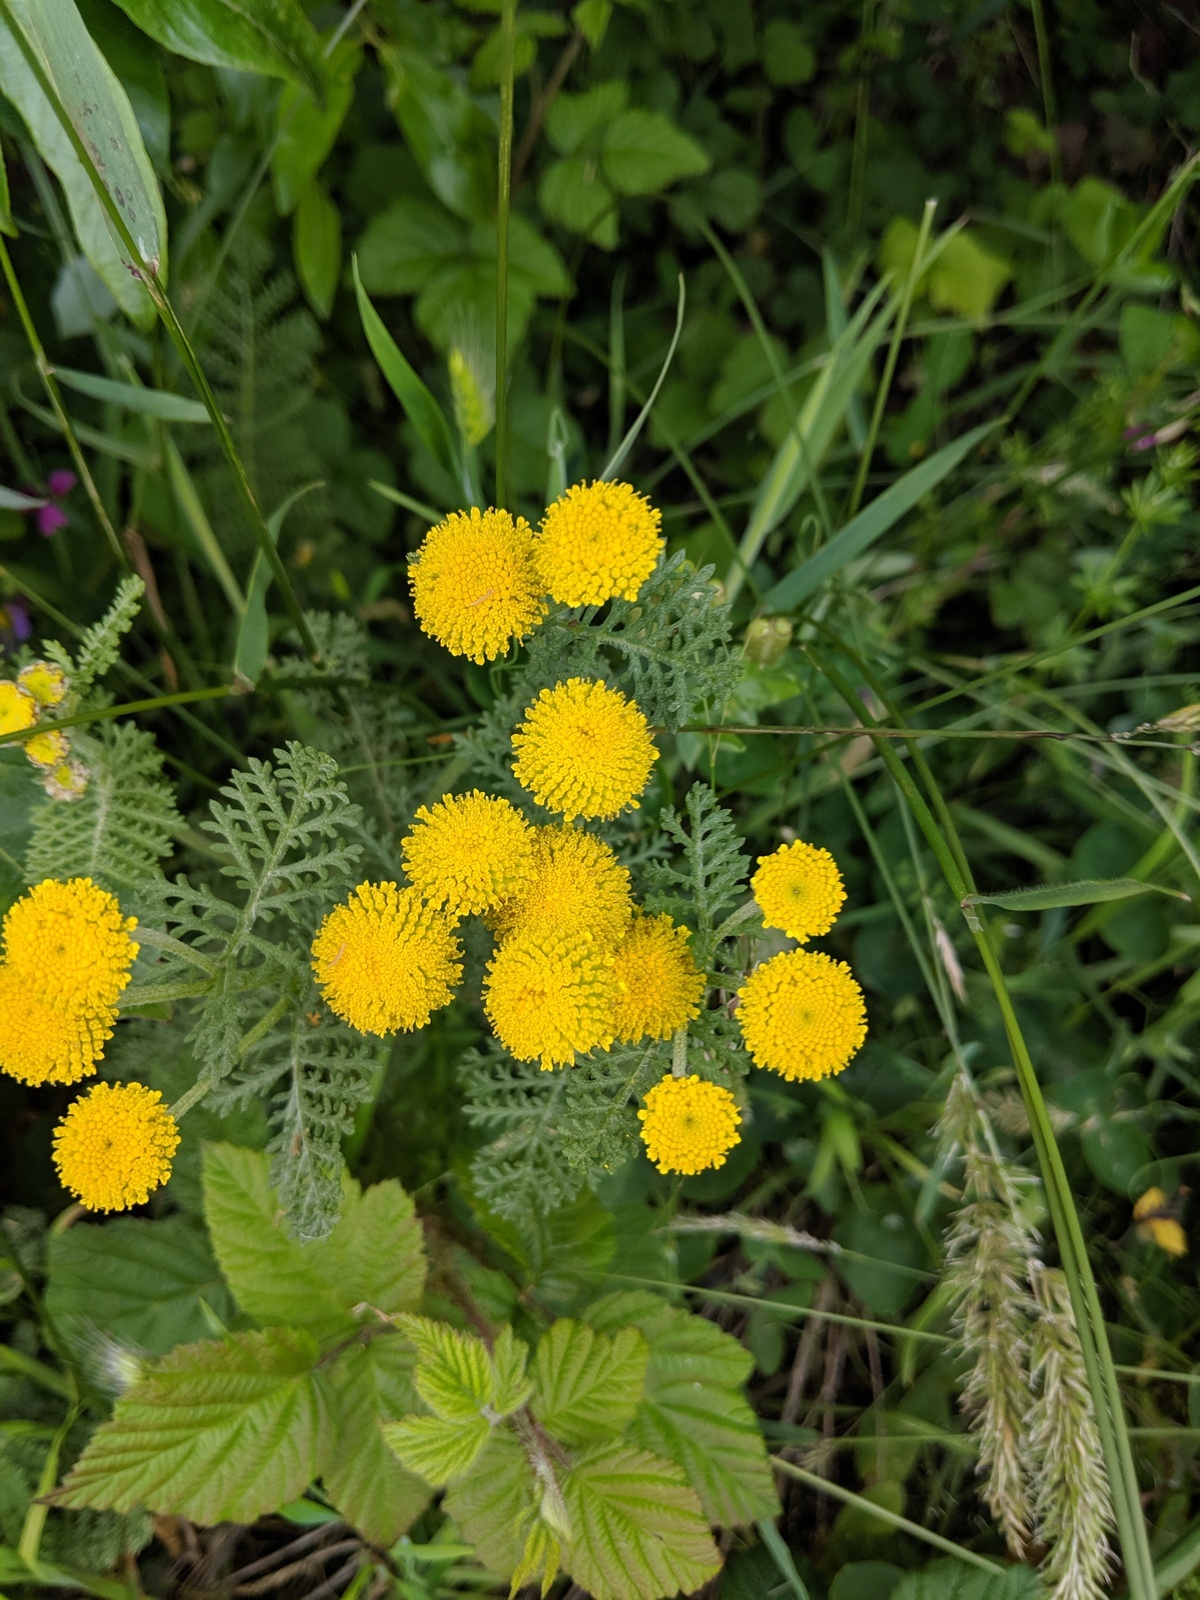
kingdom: Plantae
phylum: Tracheophyta
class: Magnoliopsida
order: Asterales
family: Asteraceae
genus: Tanacetum
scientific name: Tanacetum bipinnatum
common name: Dwarf tansy
